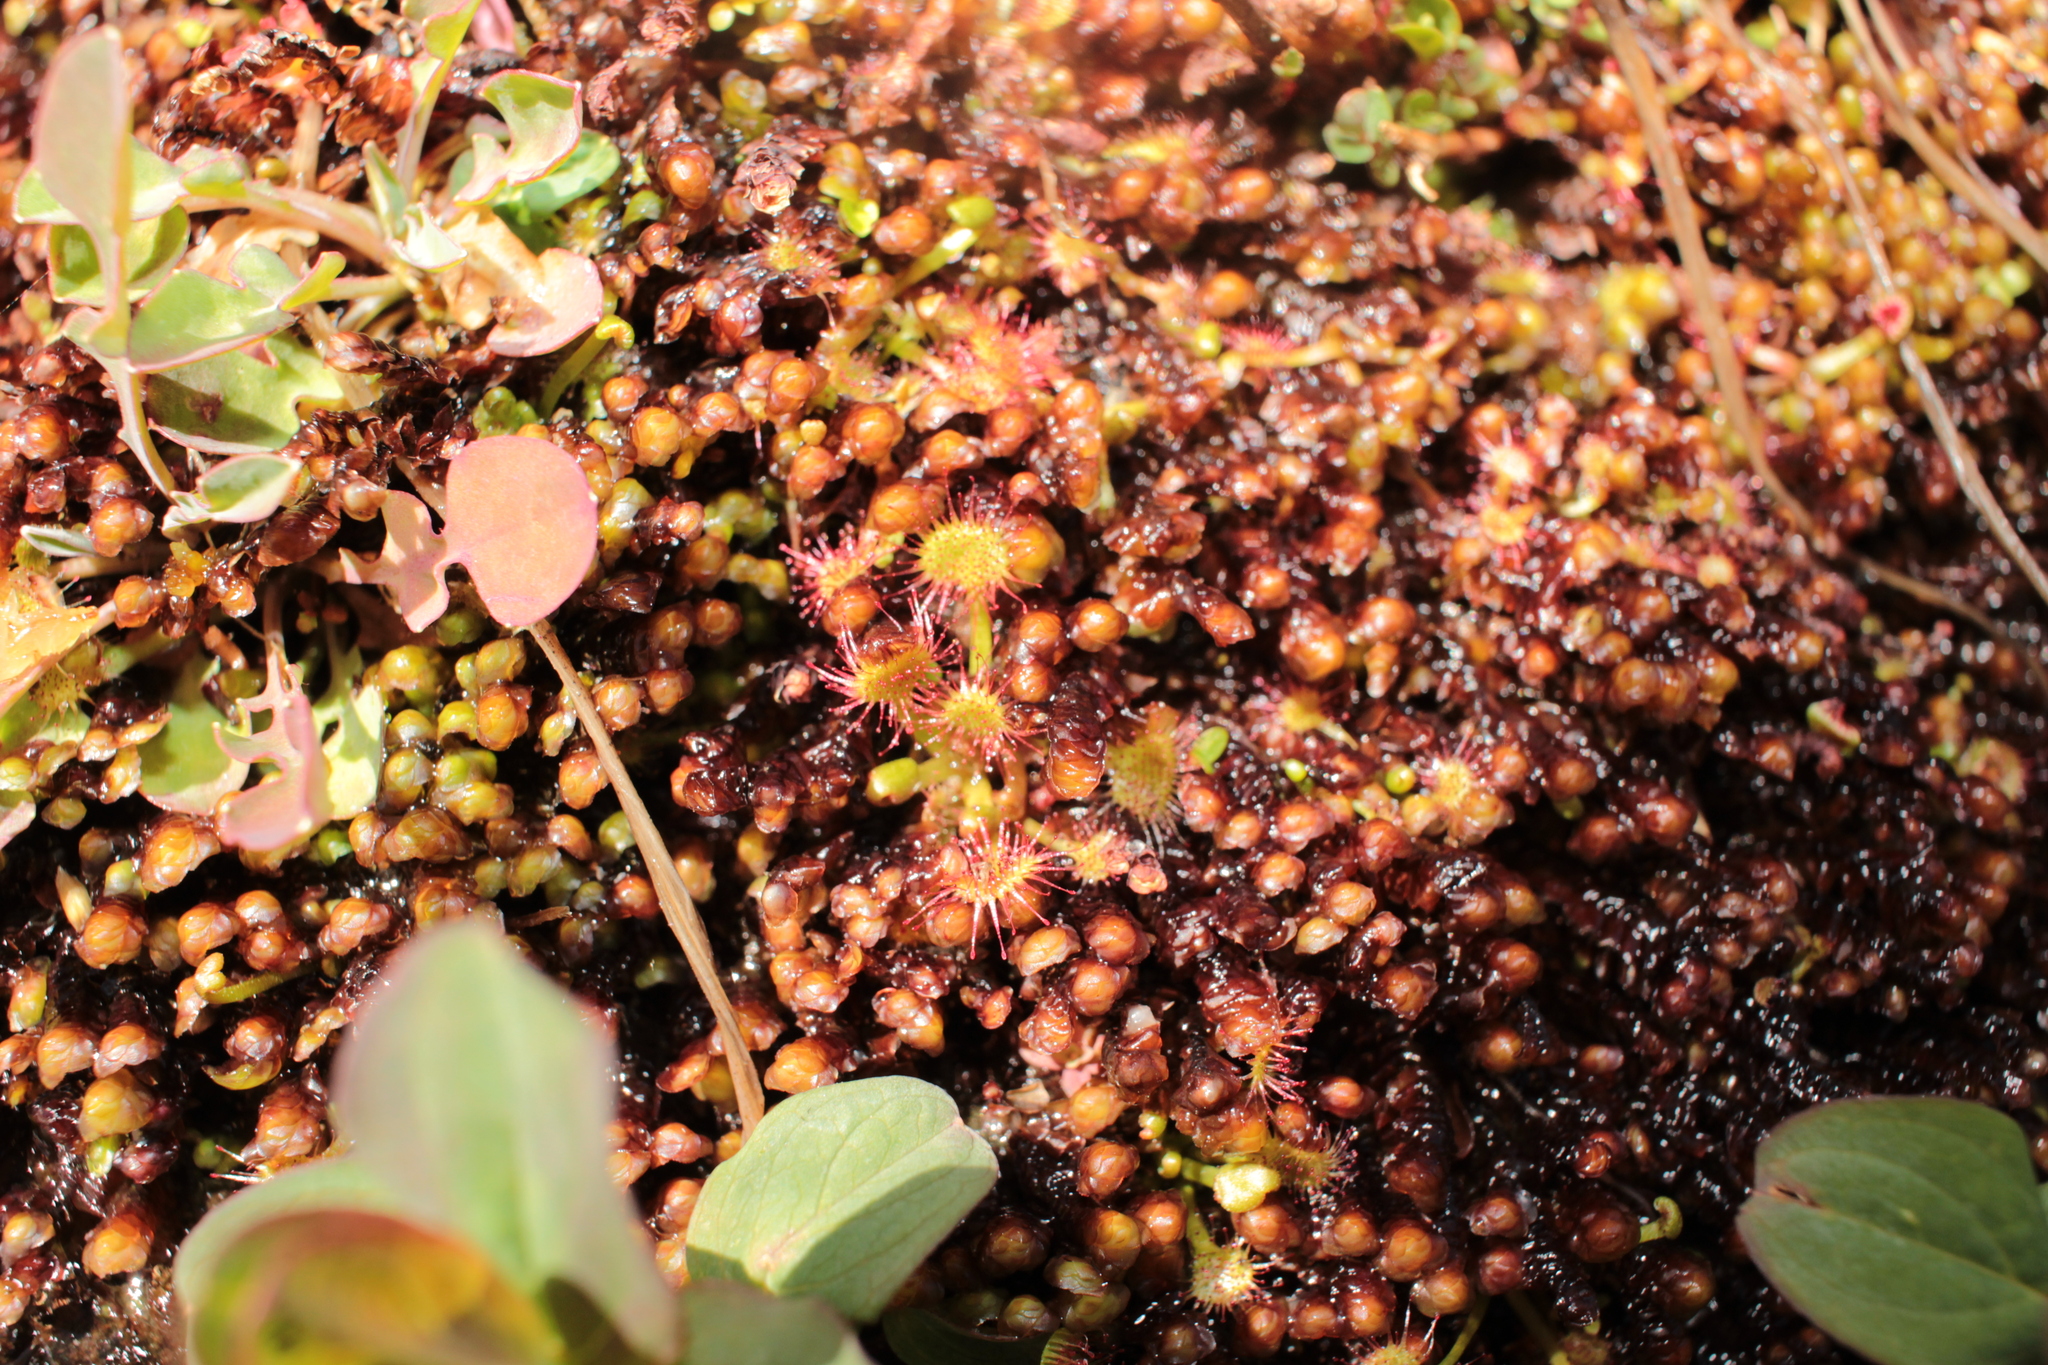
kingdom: Plantae
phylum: Tracheophyta
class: Magnoliopsida
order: Caryophyllales
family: Droseraceae
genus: Drosera
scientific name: Drosera rotundifolia
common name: Round-leaved sundew
